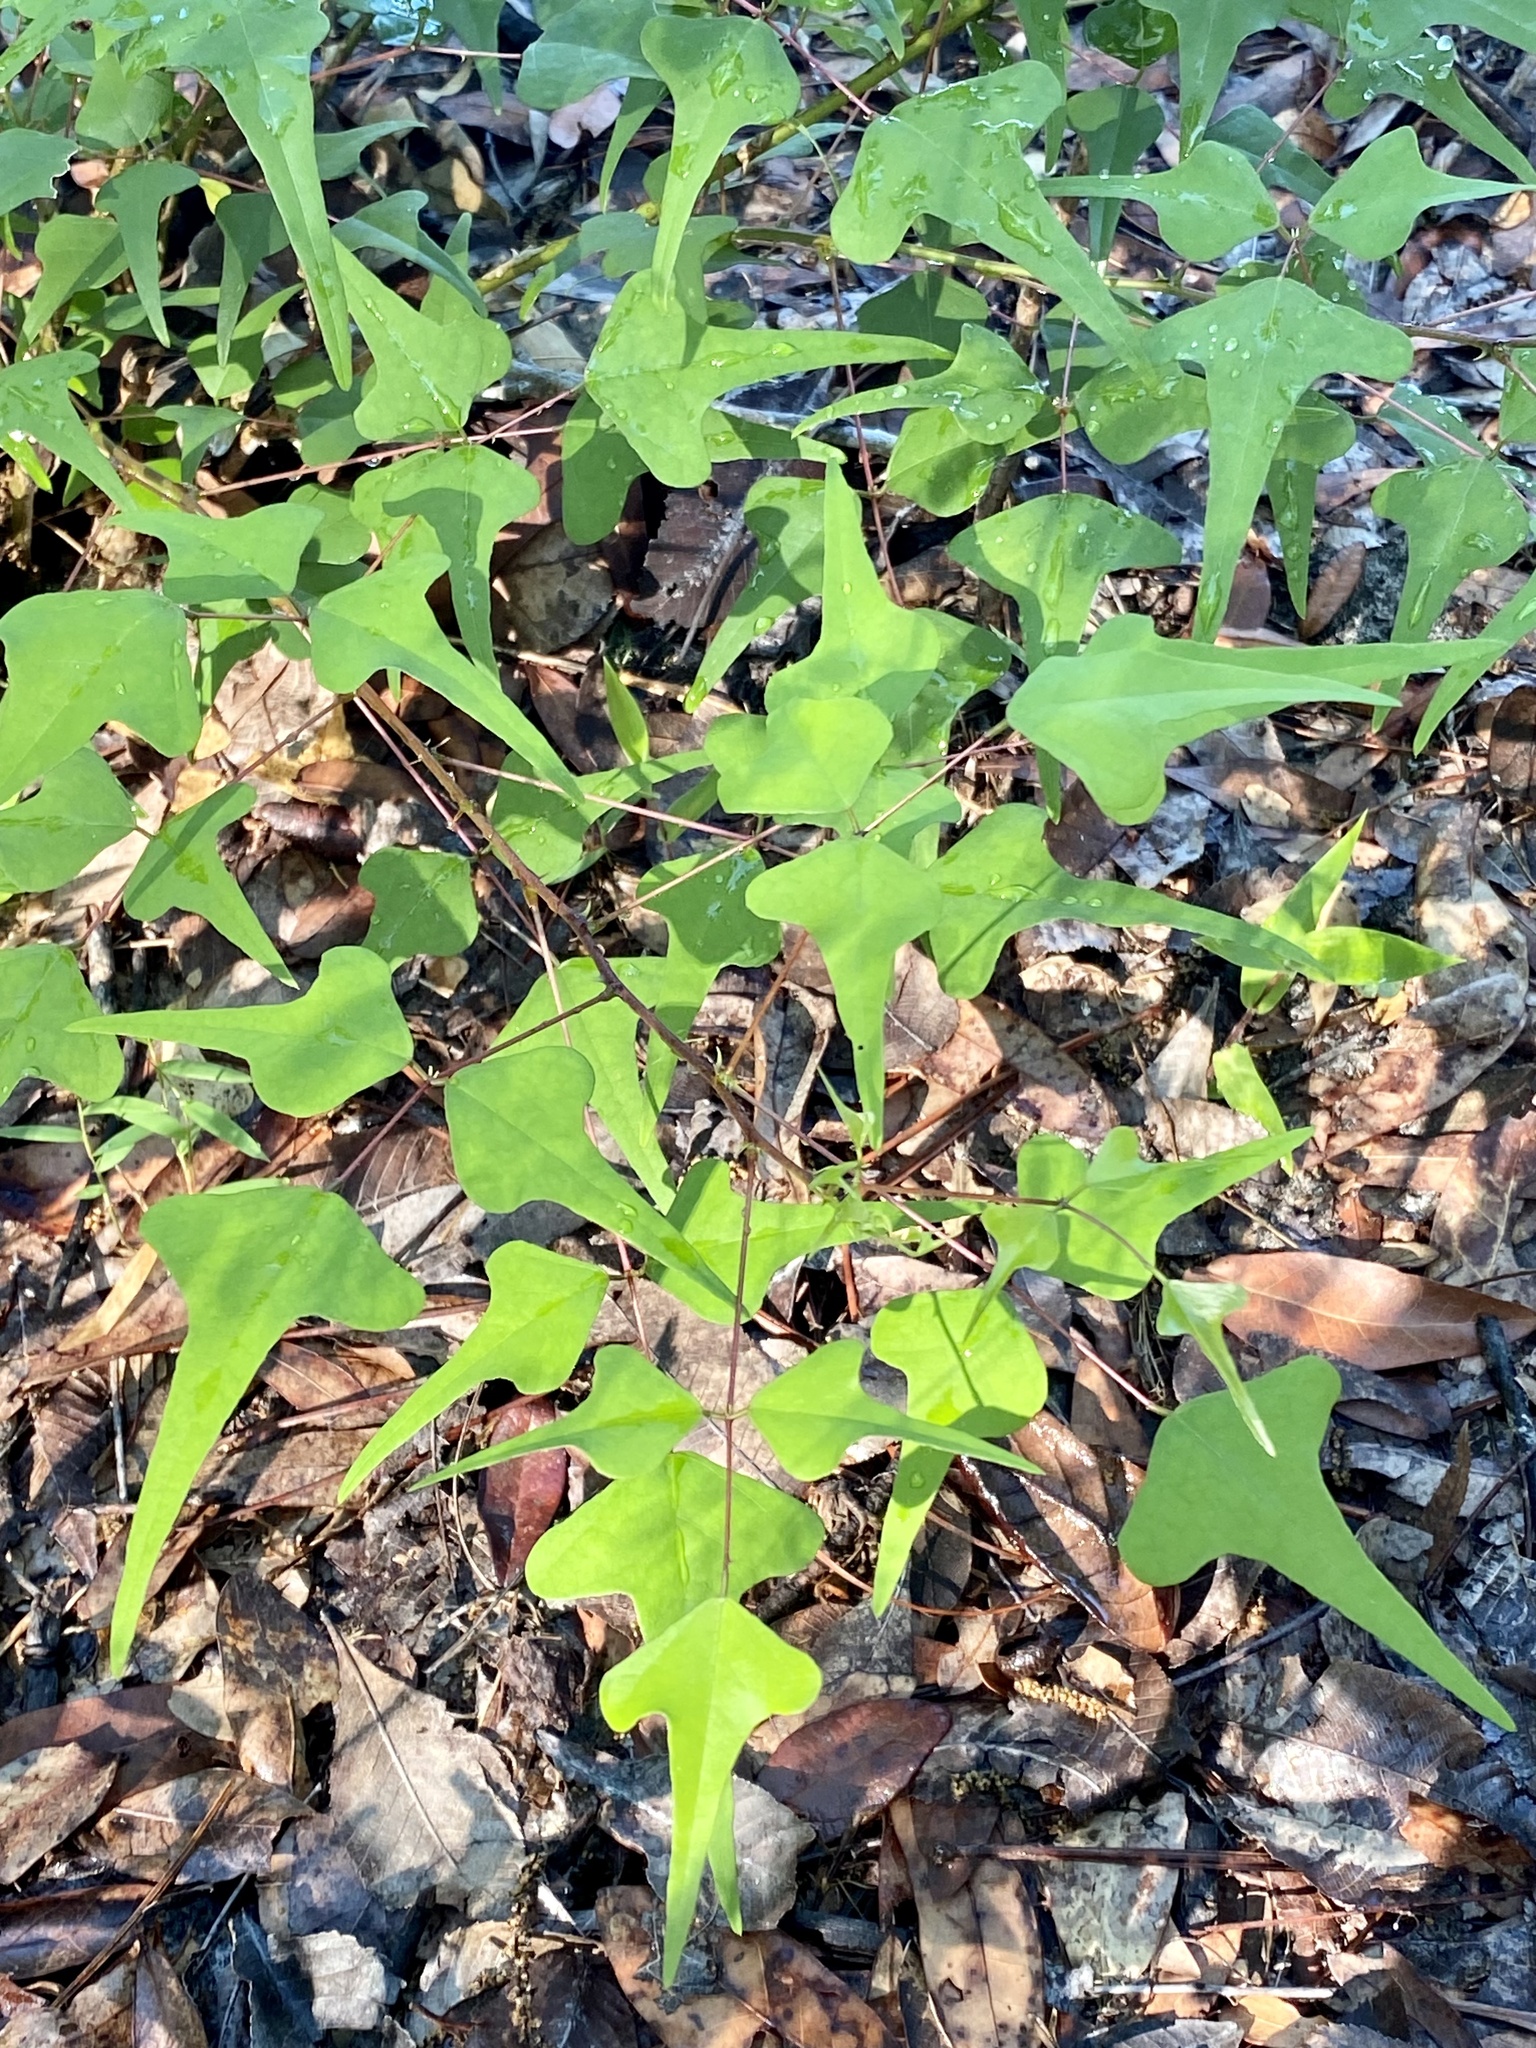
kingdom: Plantae
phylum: Tracheophyta
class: Magnoliopsida
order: Fabales
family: Fabaceae
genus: Erythrina
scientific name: Erythrina herbacea
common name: Coral-bean
